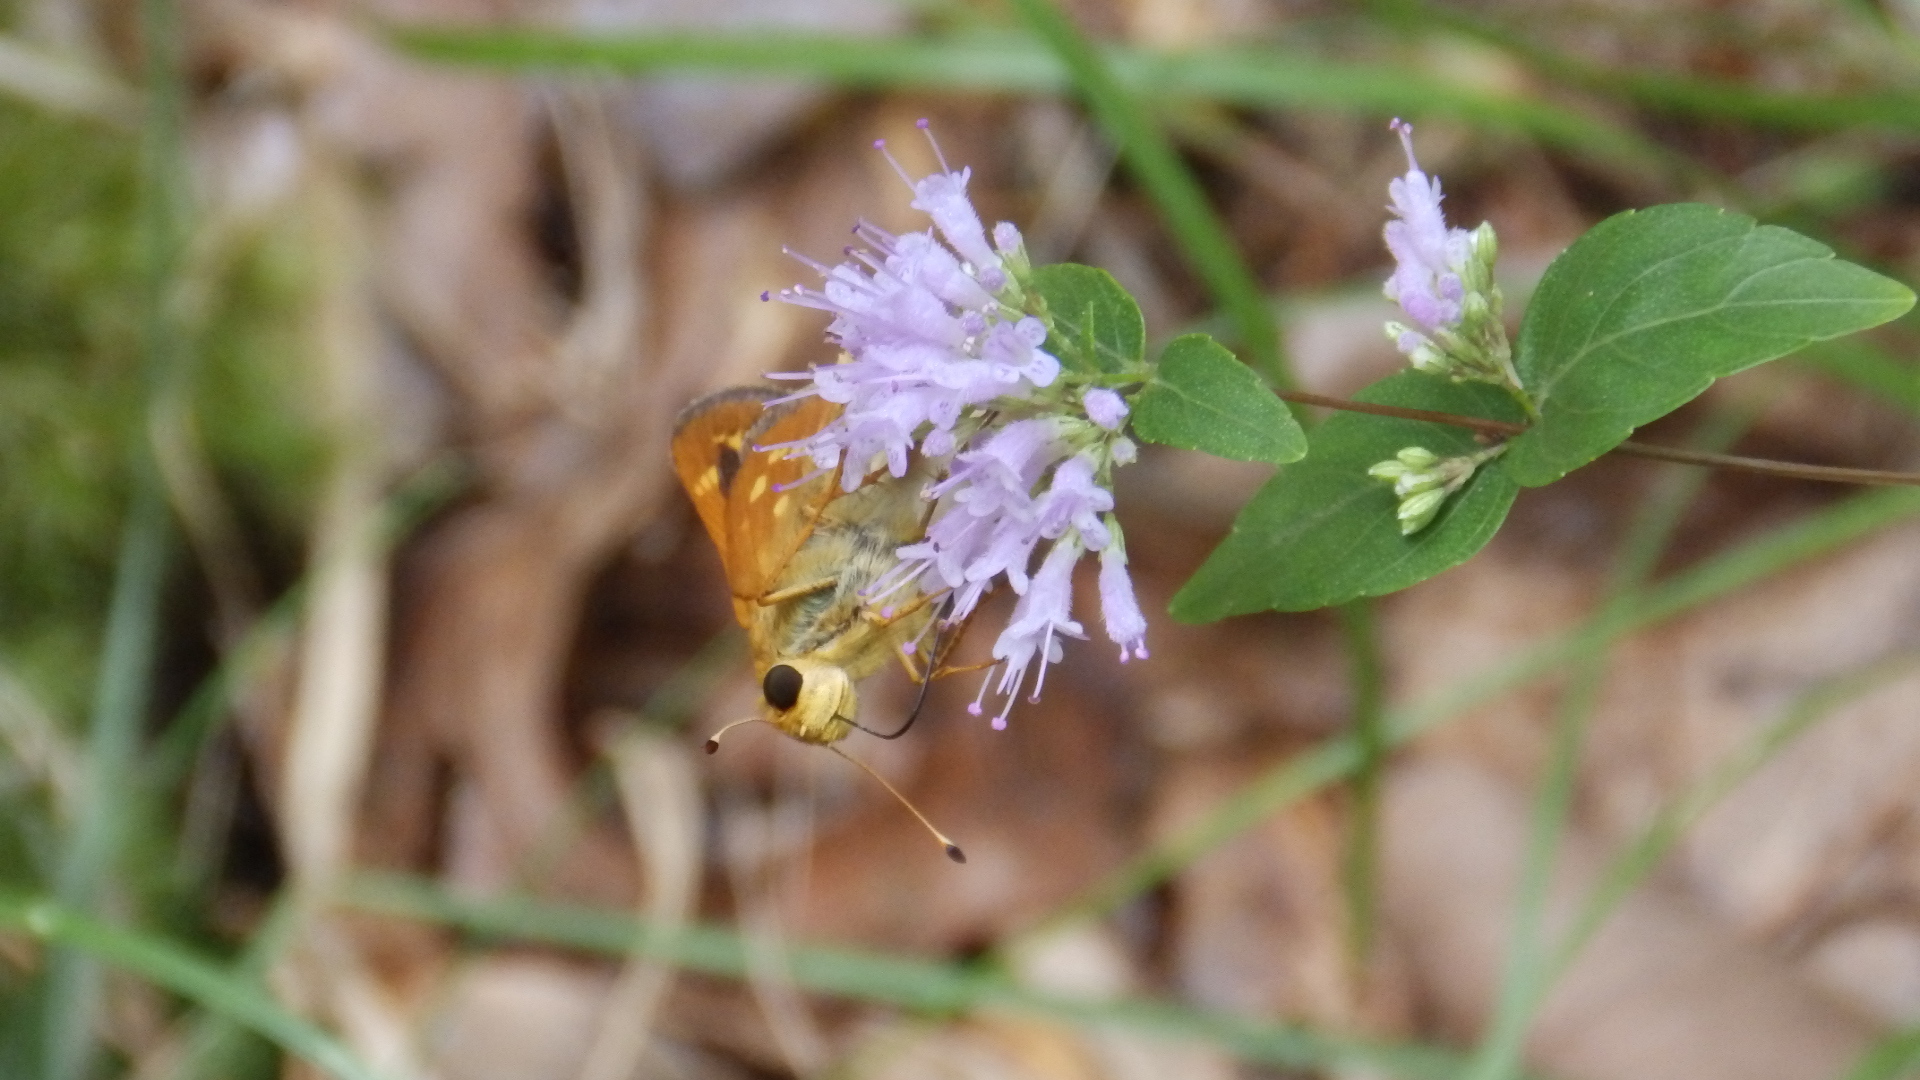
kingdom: Plantae
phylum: Tracheophyta
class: Magnoliopsida
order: Lamiales
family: Lamiaceae
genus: Cunila
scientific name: Cunila origanoides
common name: American dittany
